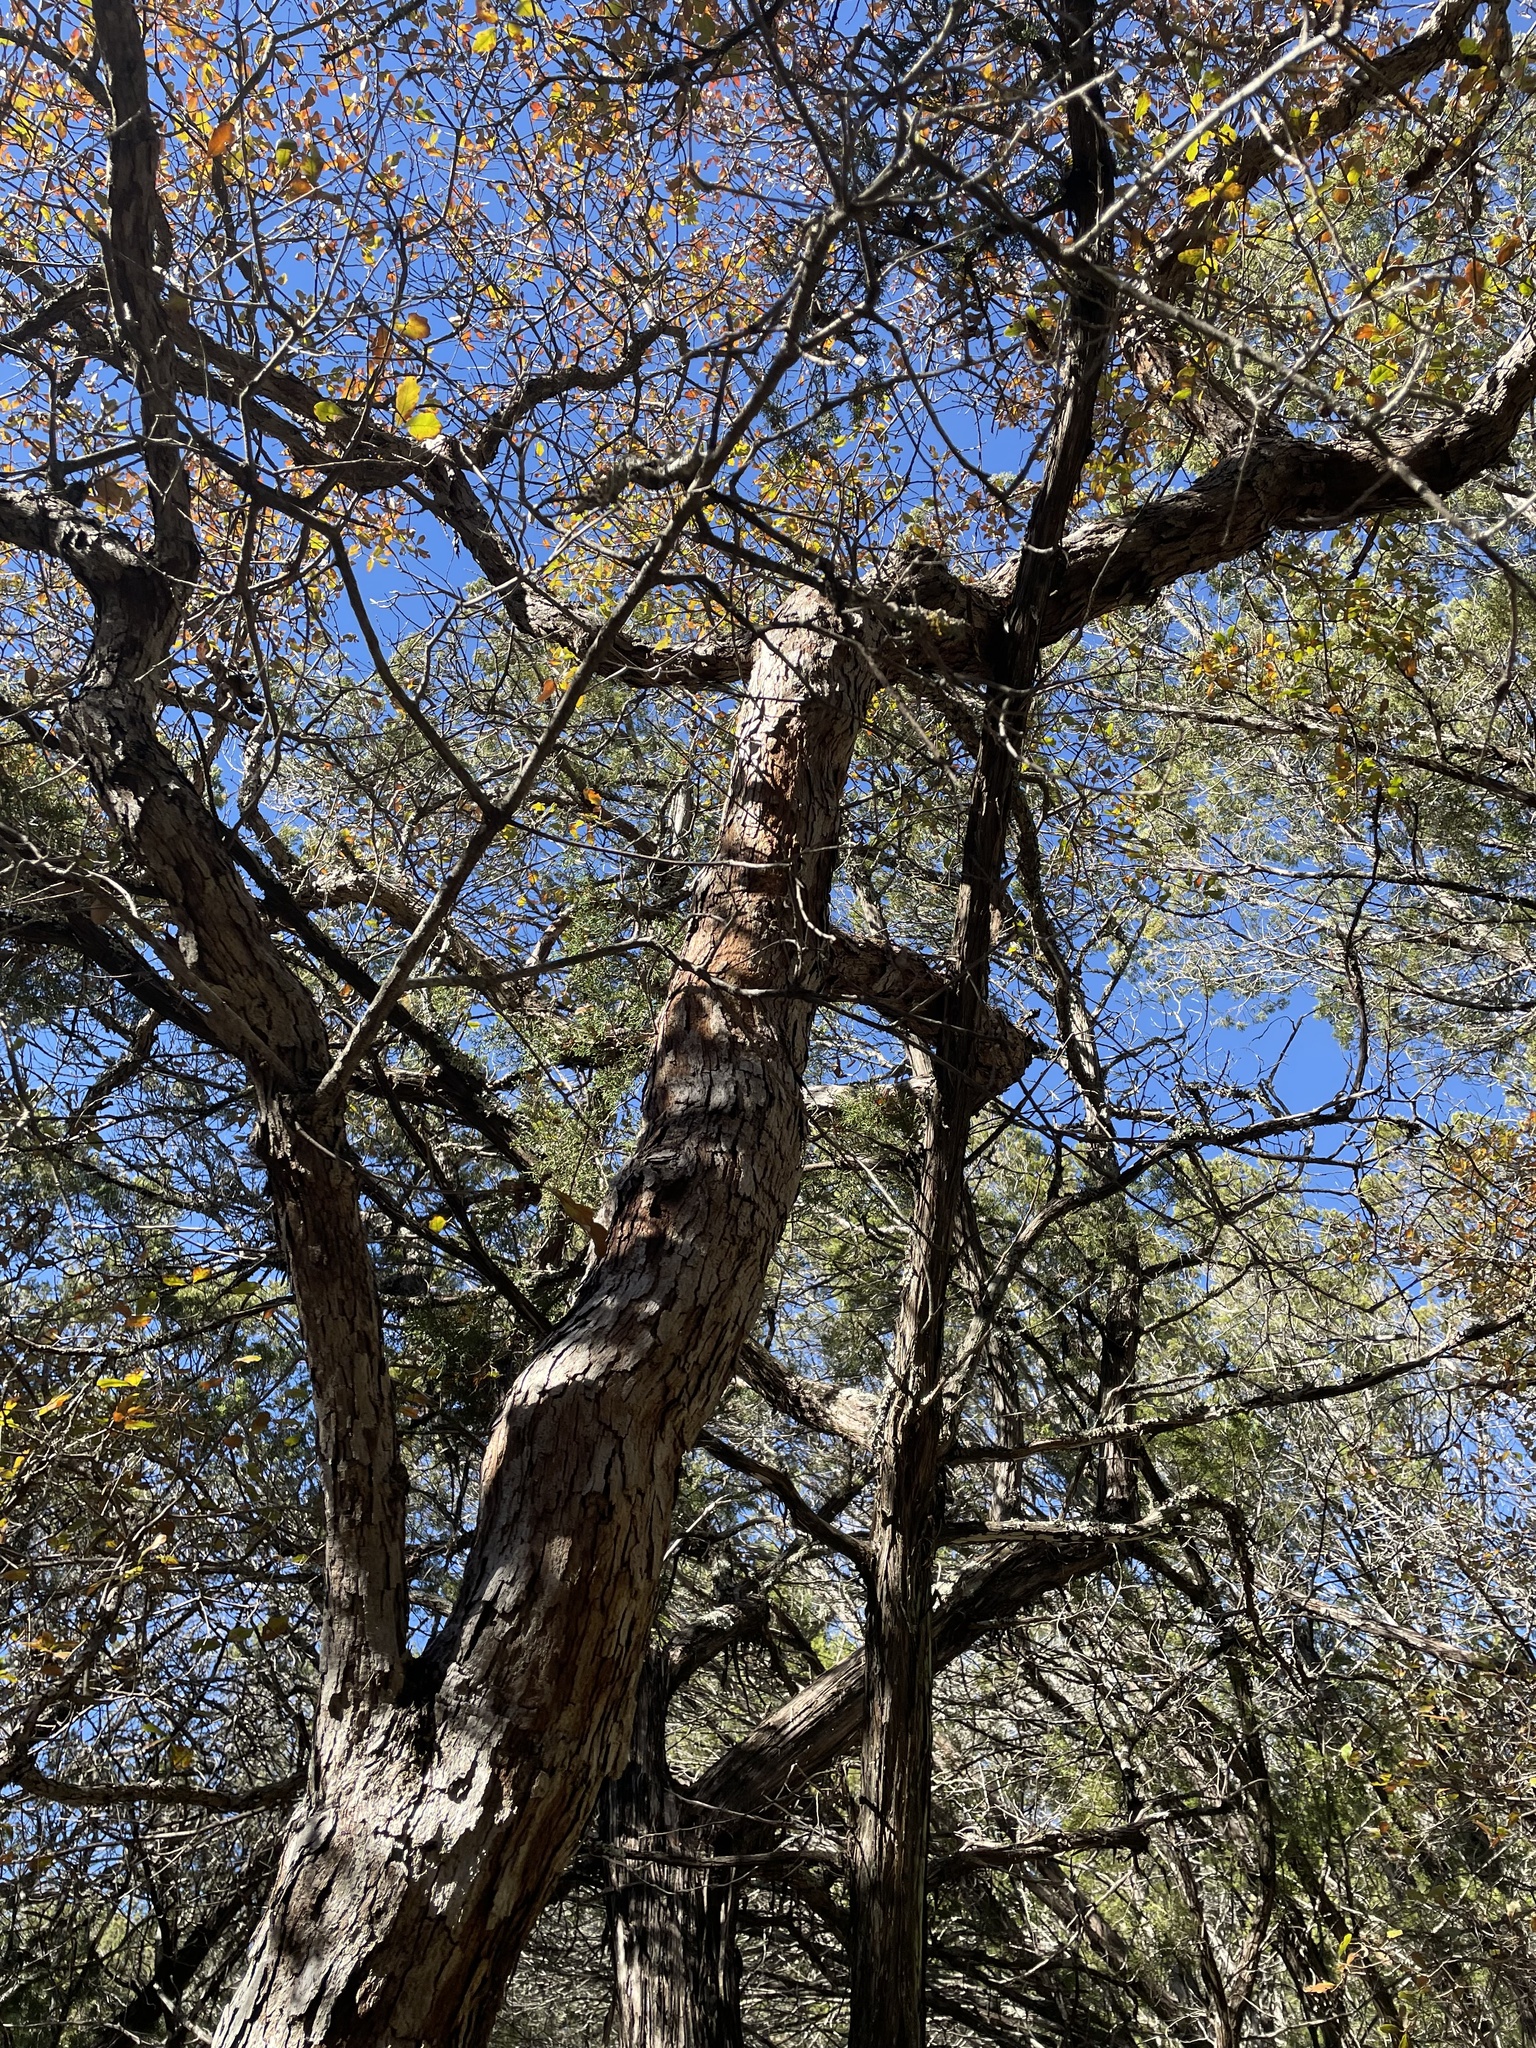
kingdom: Plantae
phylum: Tracheophyta
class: Magnoliopsida
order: Fagales
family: Fagaceae
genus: Quercus
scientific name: Quercus sinuata
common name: Durand oak
